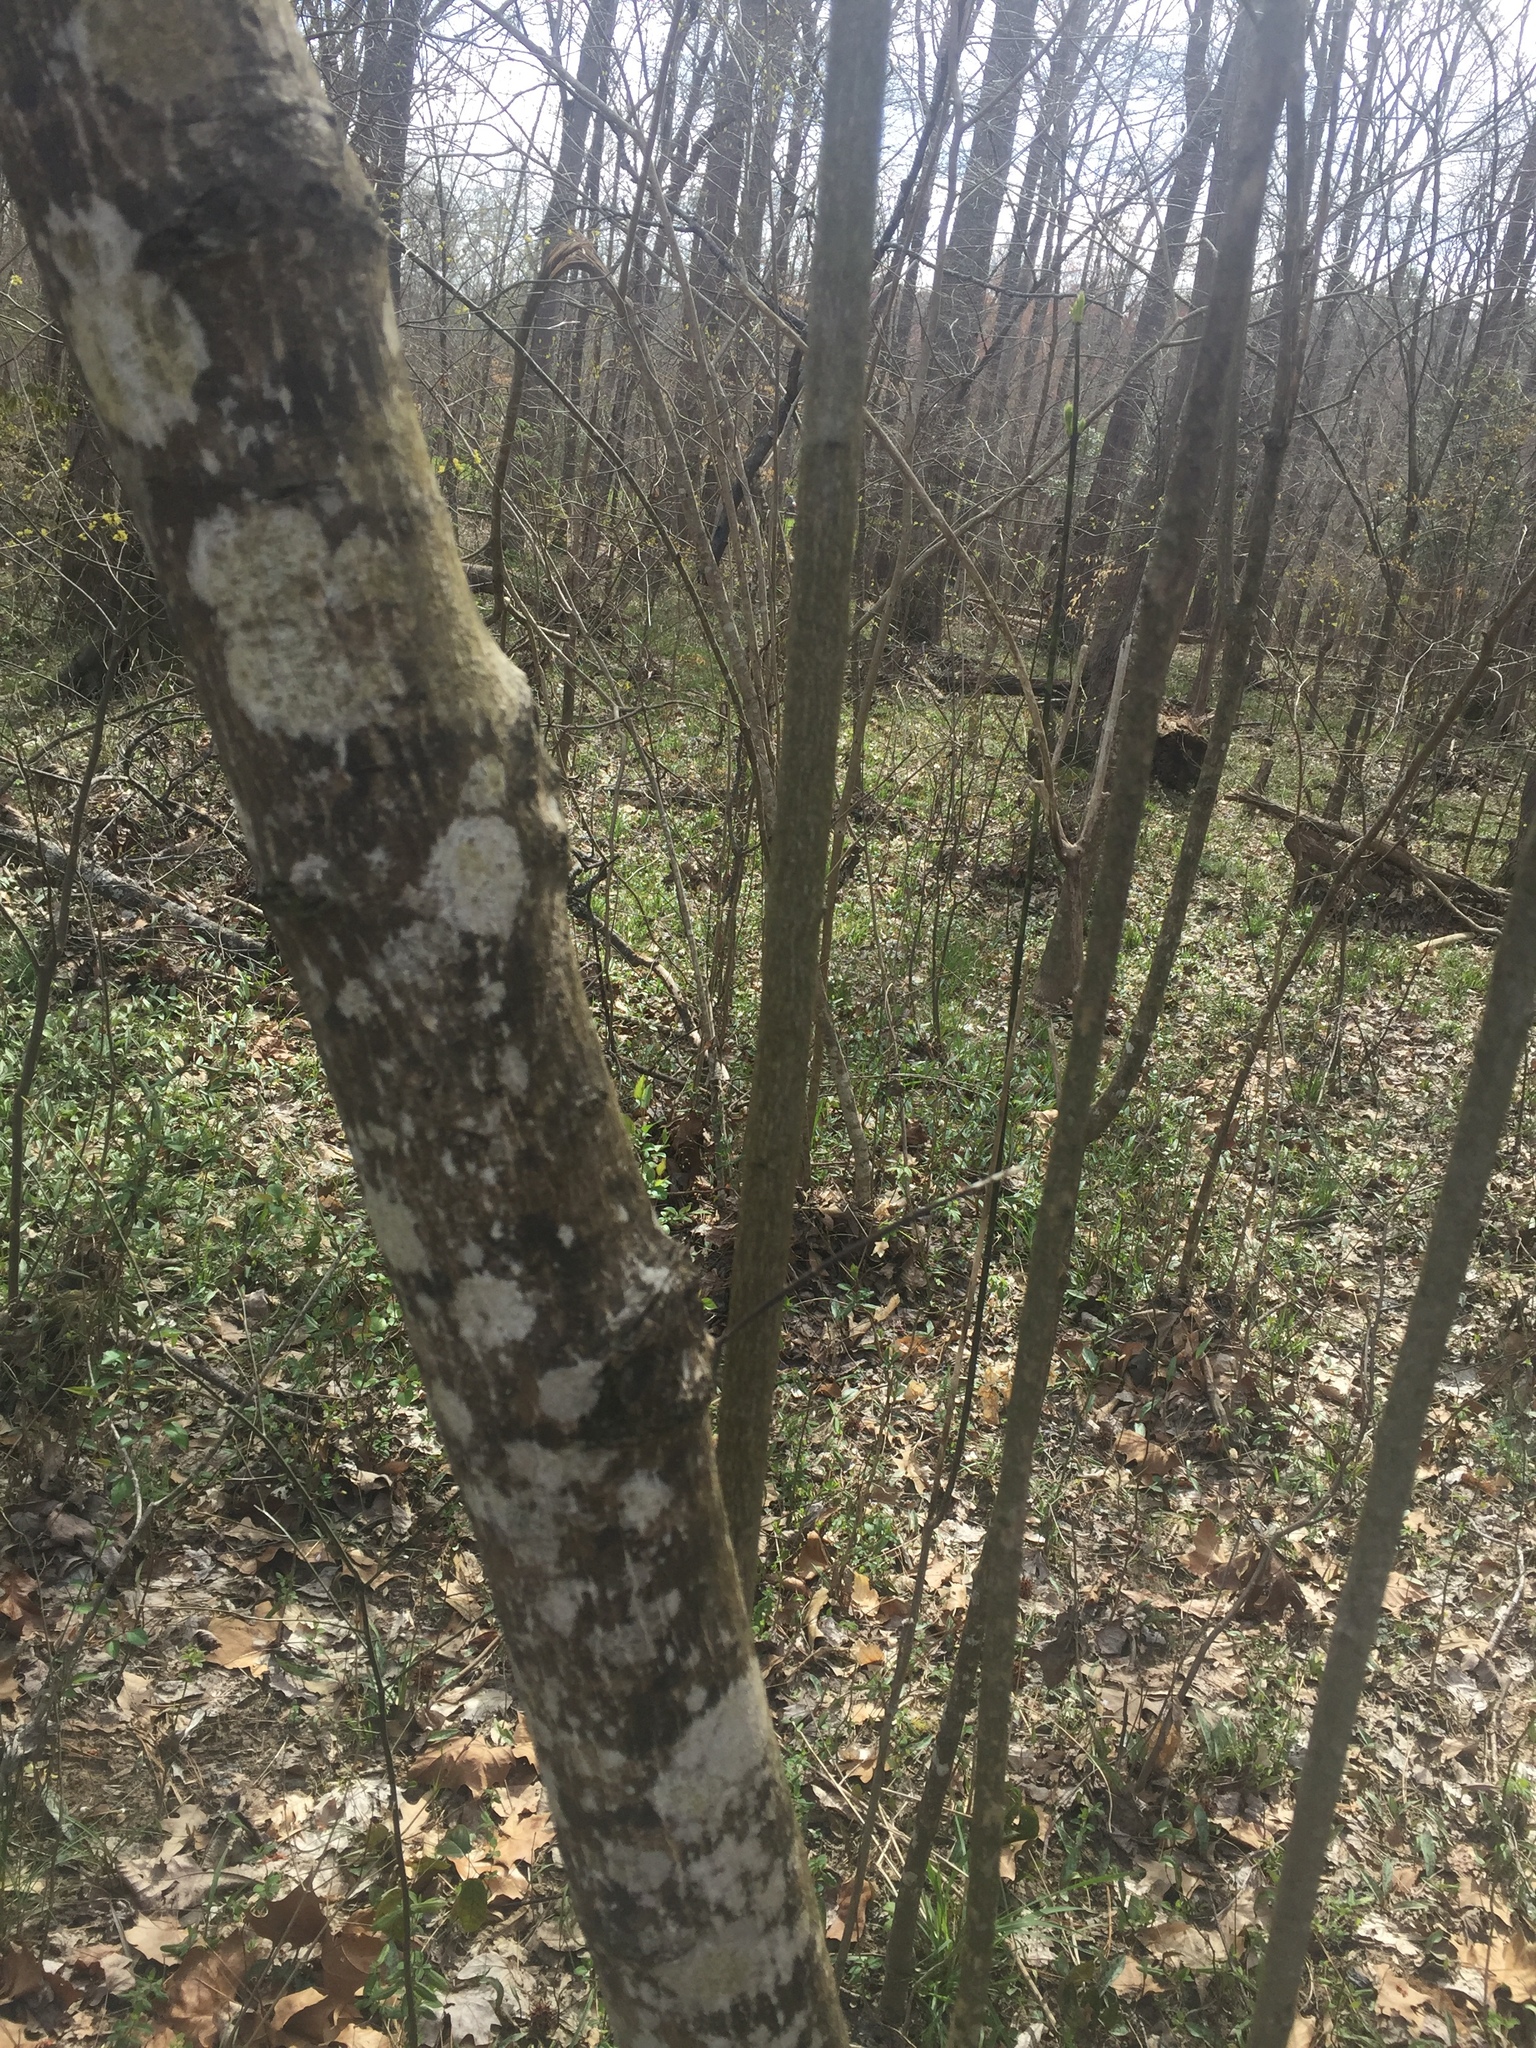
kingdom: Plantae
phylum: Tracheophyta
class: Magnoliopsida
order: Crossosomatales
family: Staphyleaceae
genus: Staphylea
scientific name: Staphylea trifolia
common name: American bladdernut
